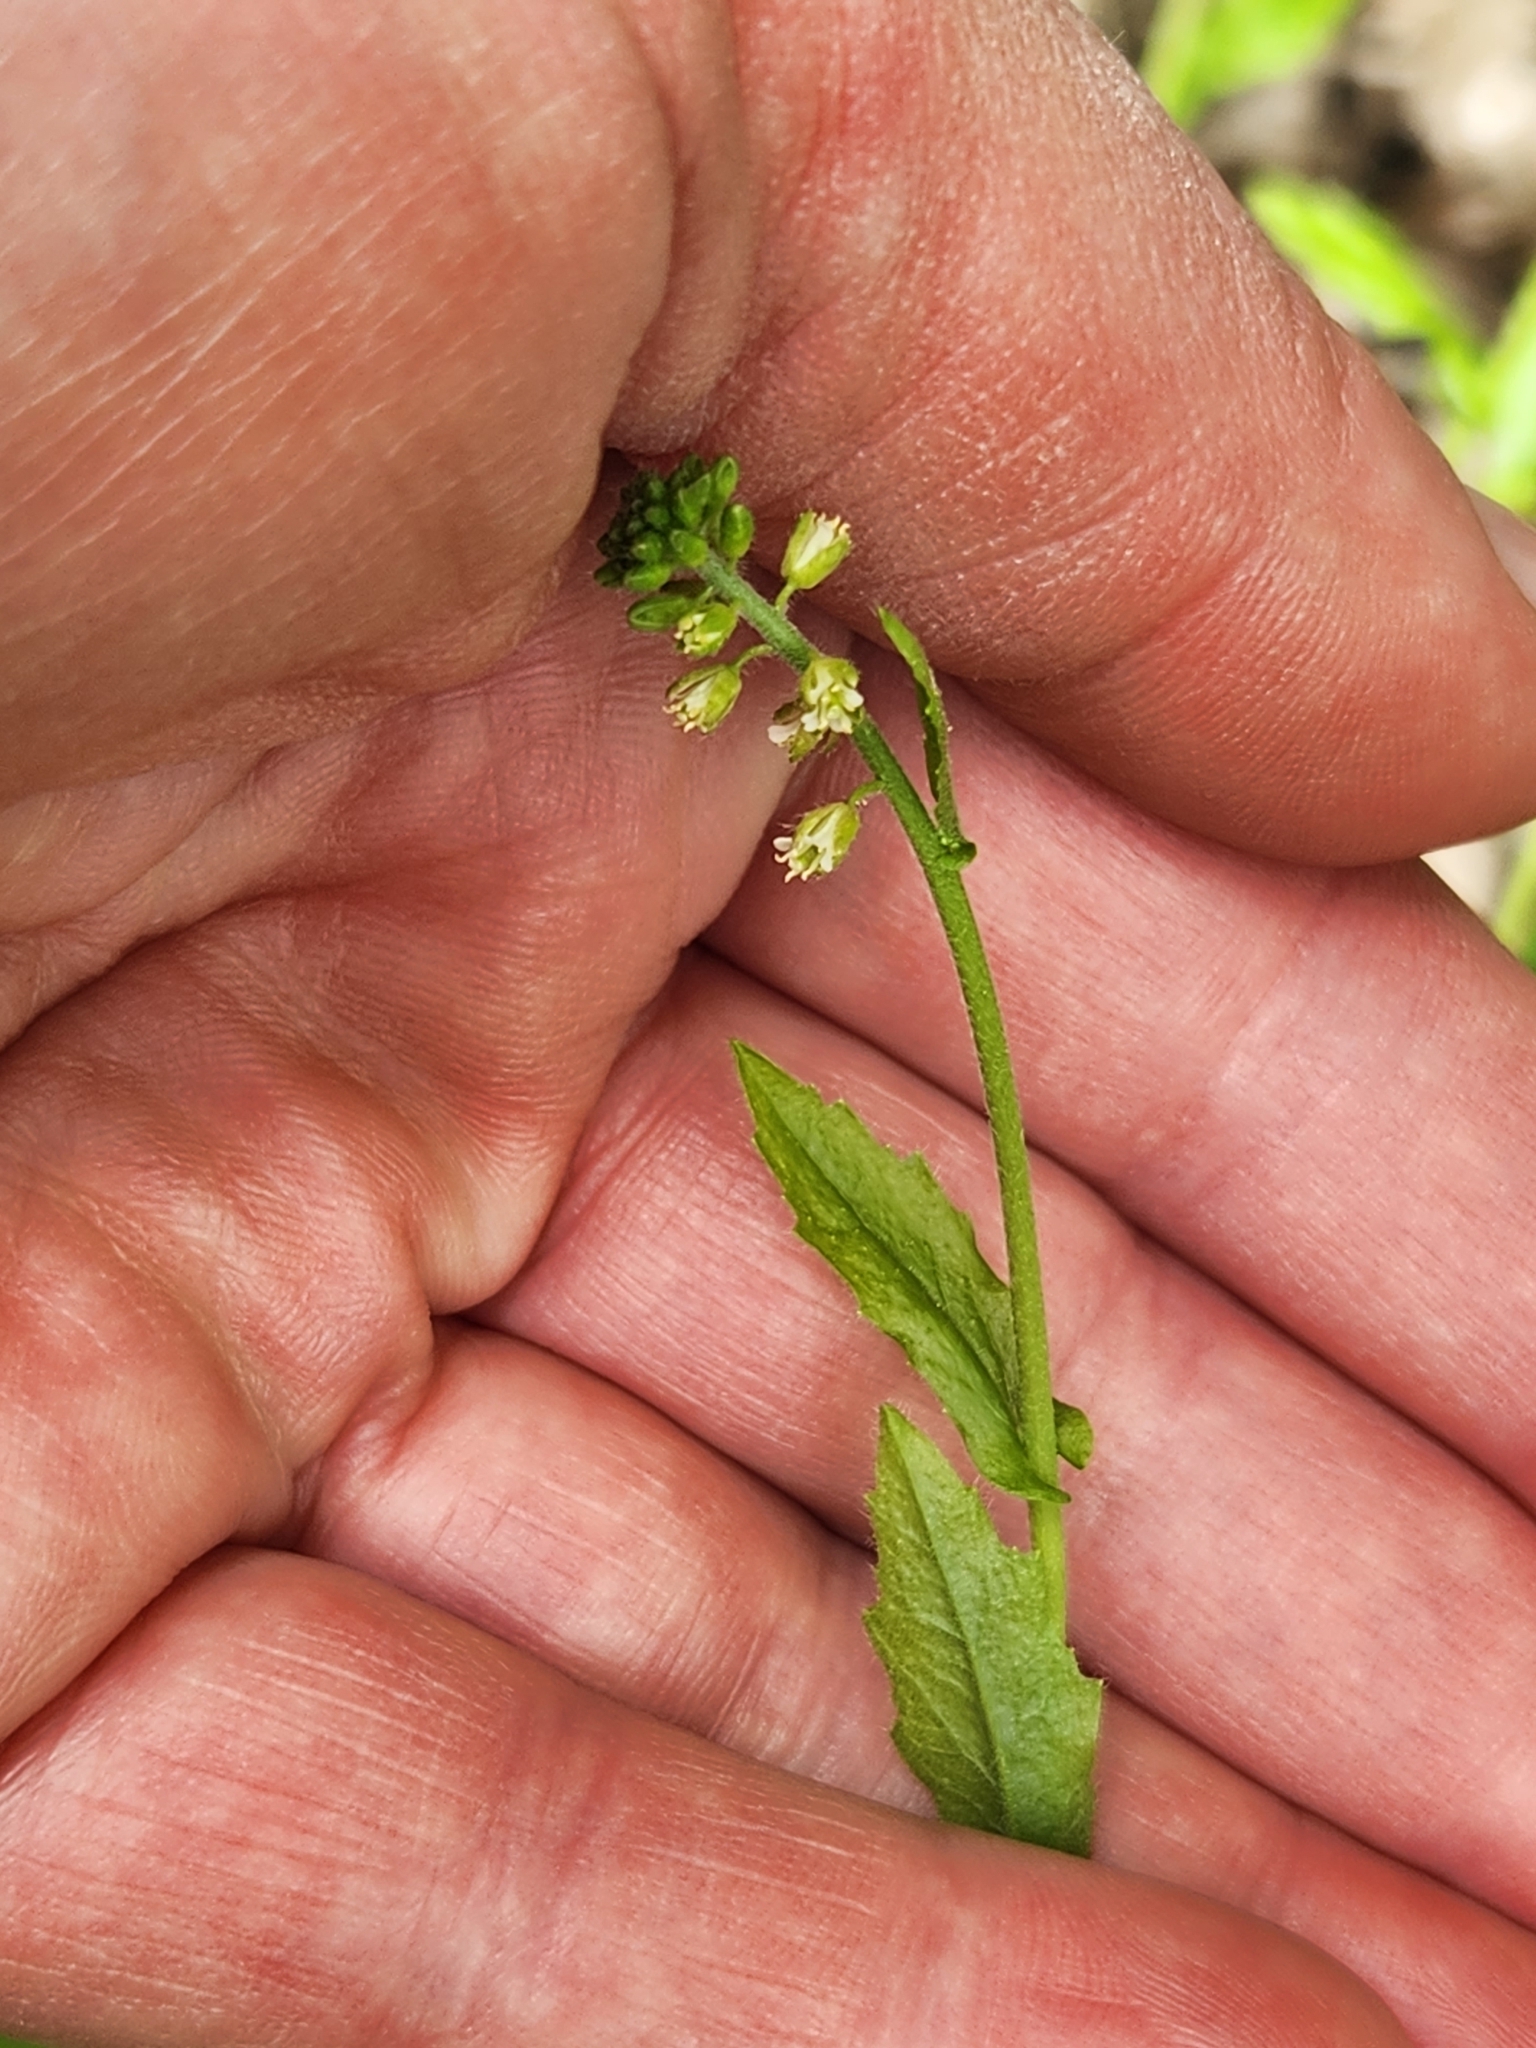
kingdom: Plantae
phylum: Tracheophyta
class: Magnoliopsida
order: Brassicales
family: Brassicaceae
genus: Borodinia
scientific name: Borodinia dentata
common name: Short's rockcress
